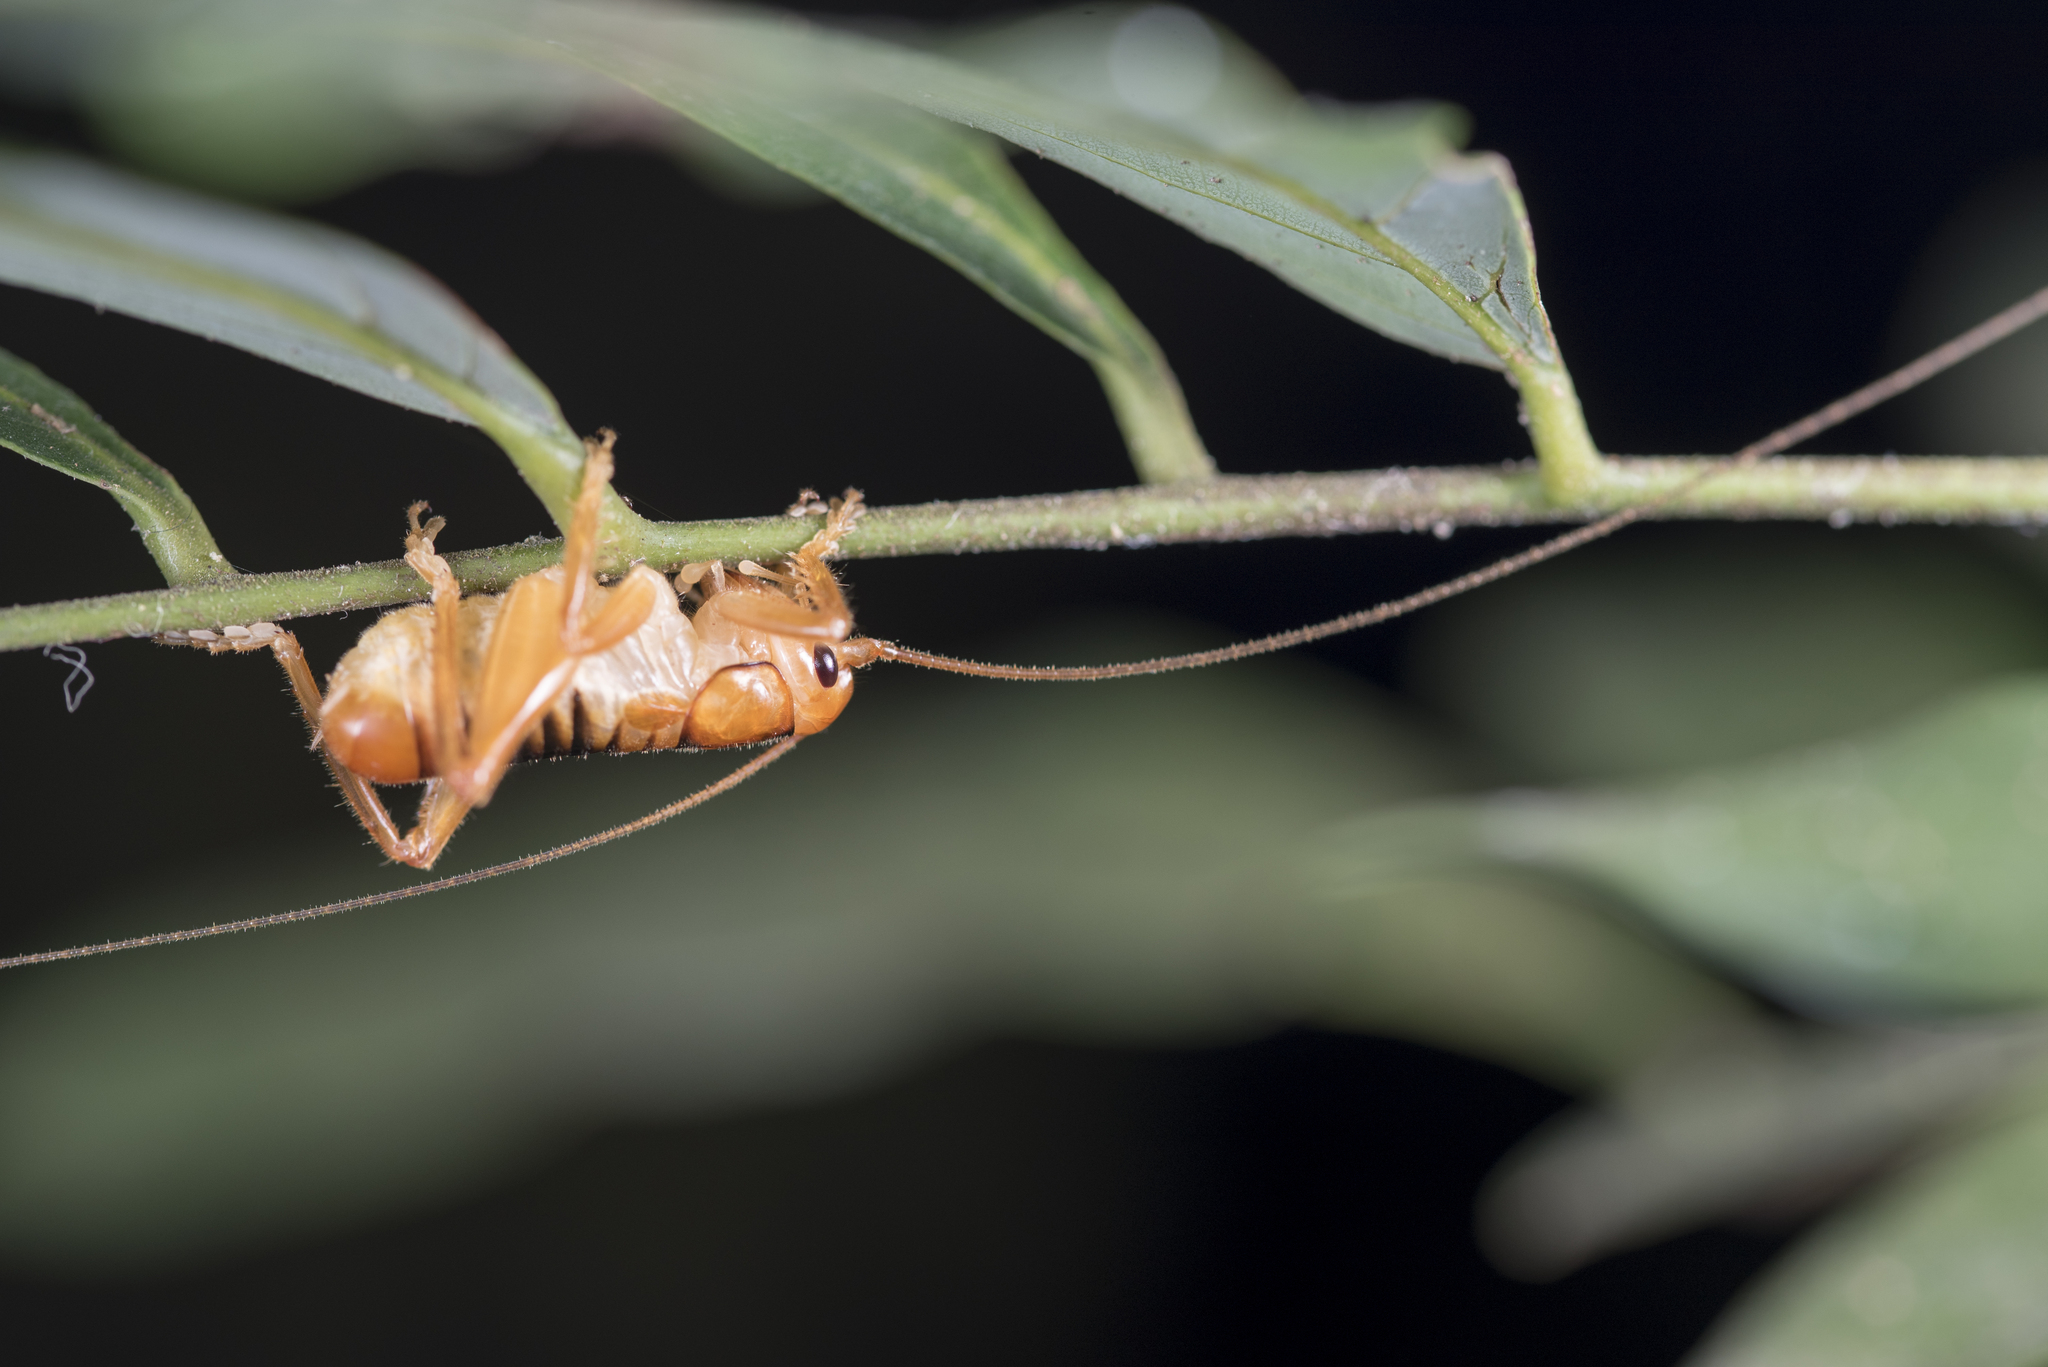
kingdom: Animalia
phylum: Arthropoda
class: Insecta
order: Orthoptera
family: Gryllacrididae
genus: Metriogryllacris
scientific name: Metriogryllacris magna
